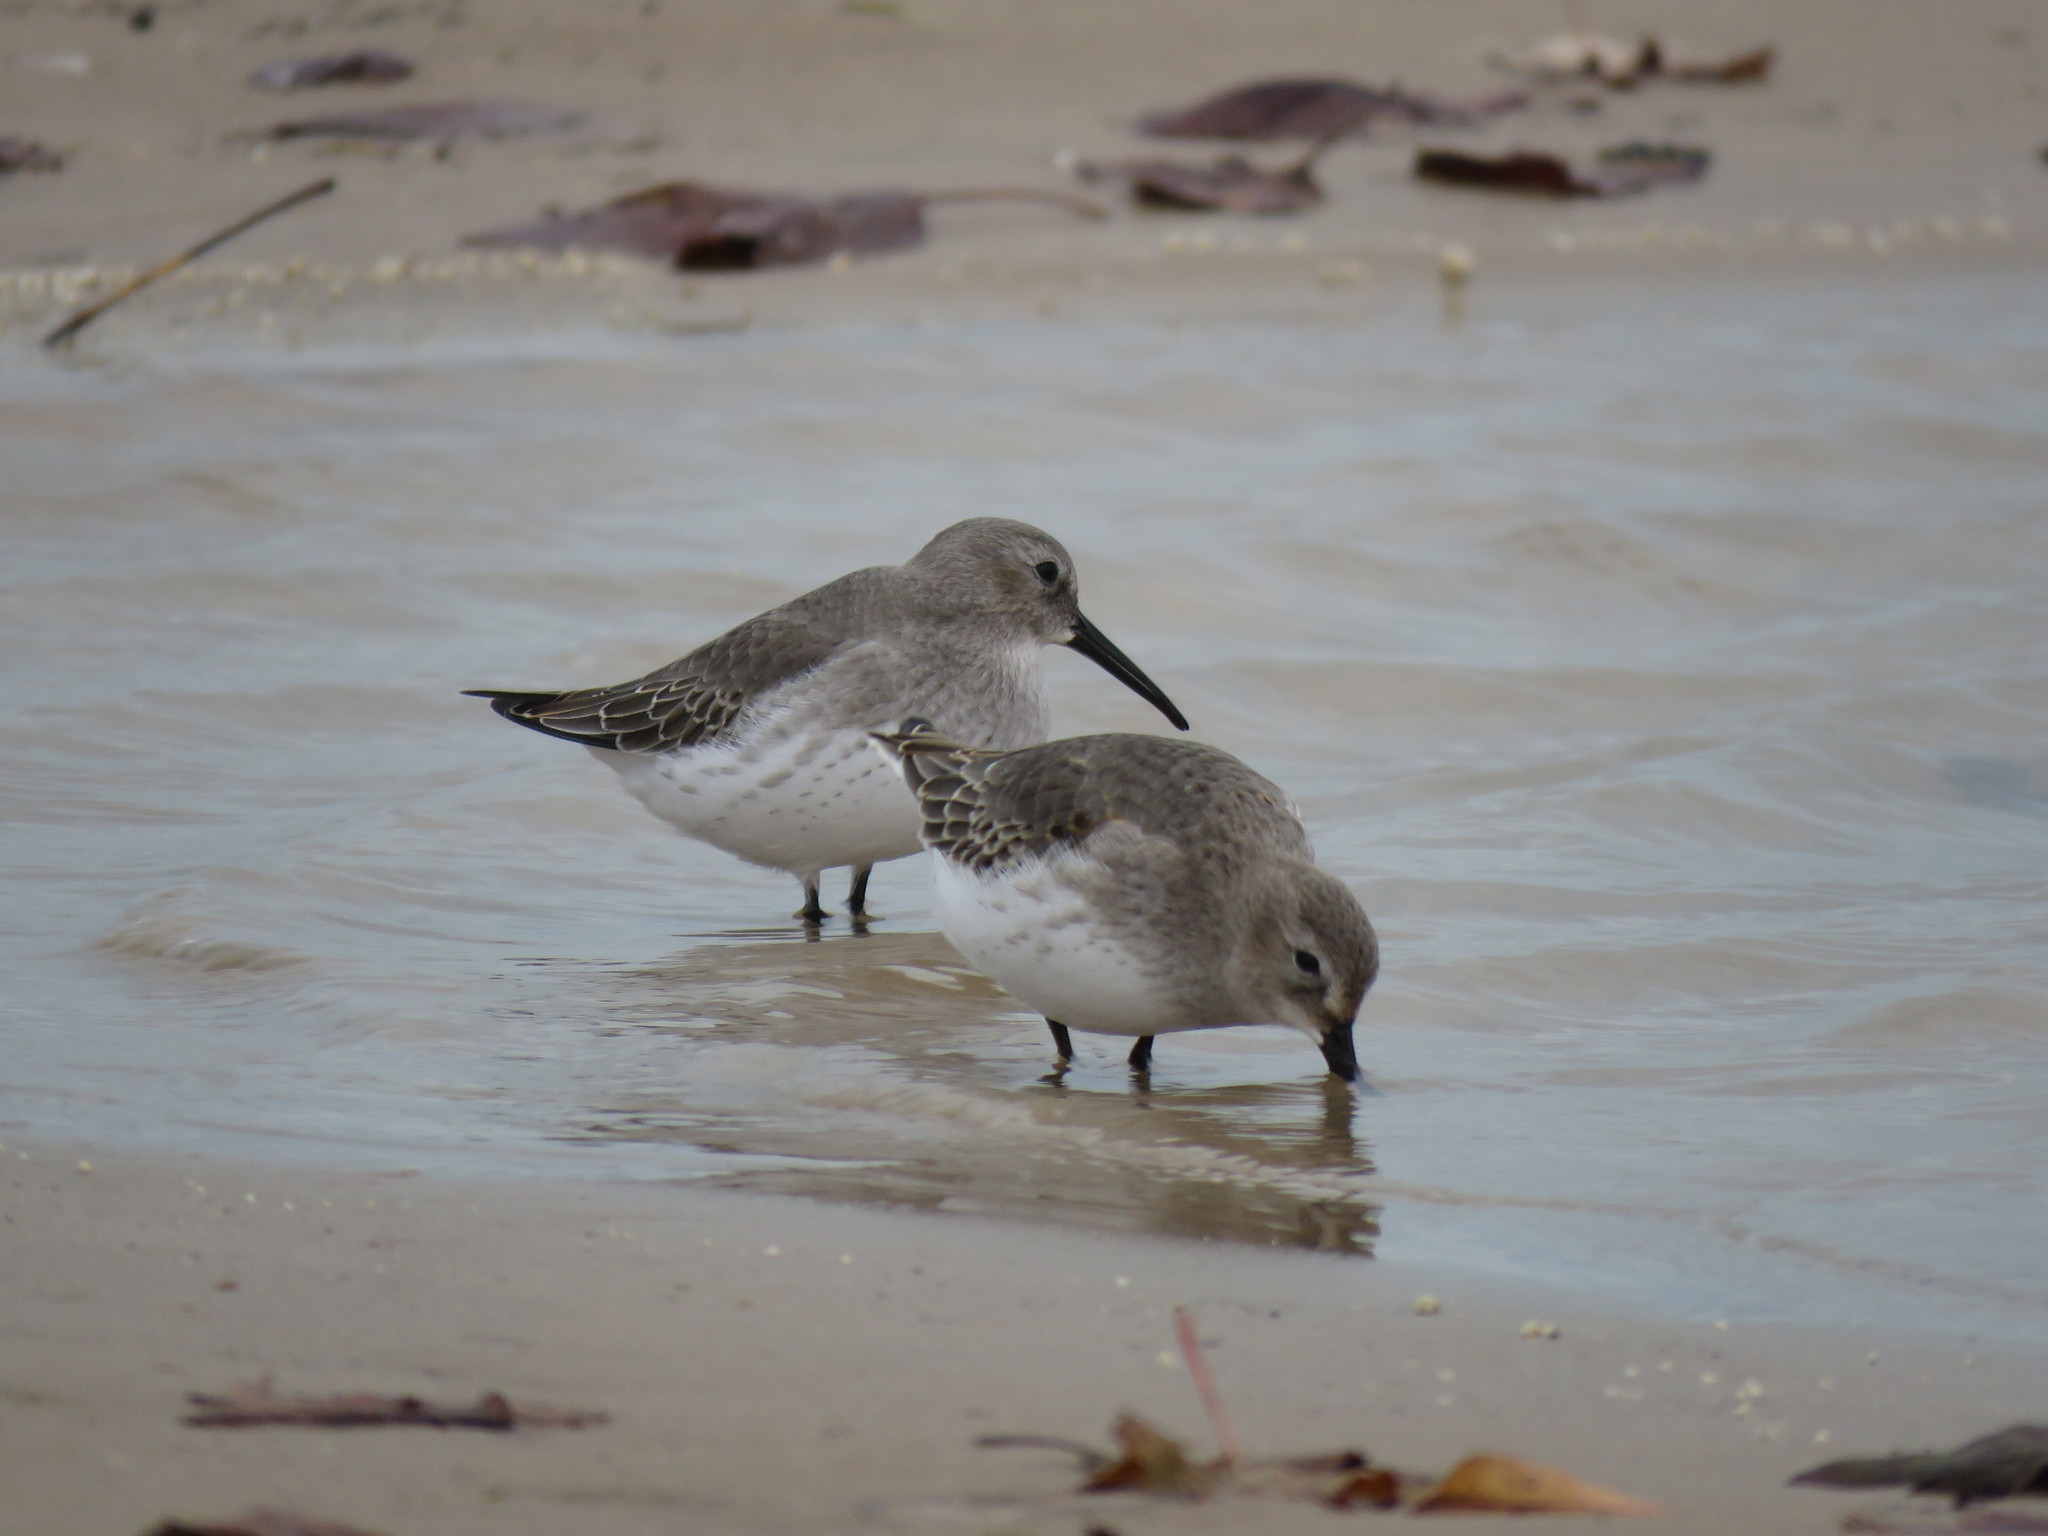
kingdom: Animalia
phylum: Chordata
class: Aves
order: Charadriiformes
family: Scolopacidae
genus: Calidris
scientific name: Calidris alpina
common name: Dunlin
